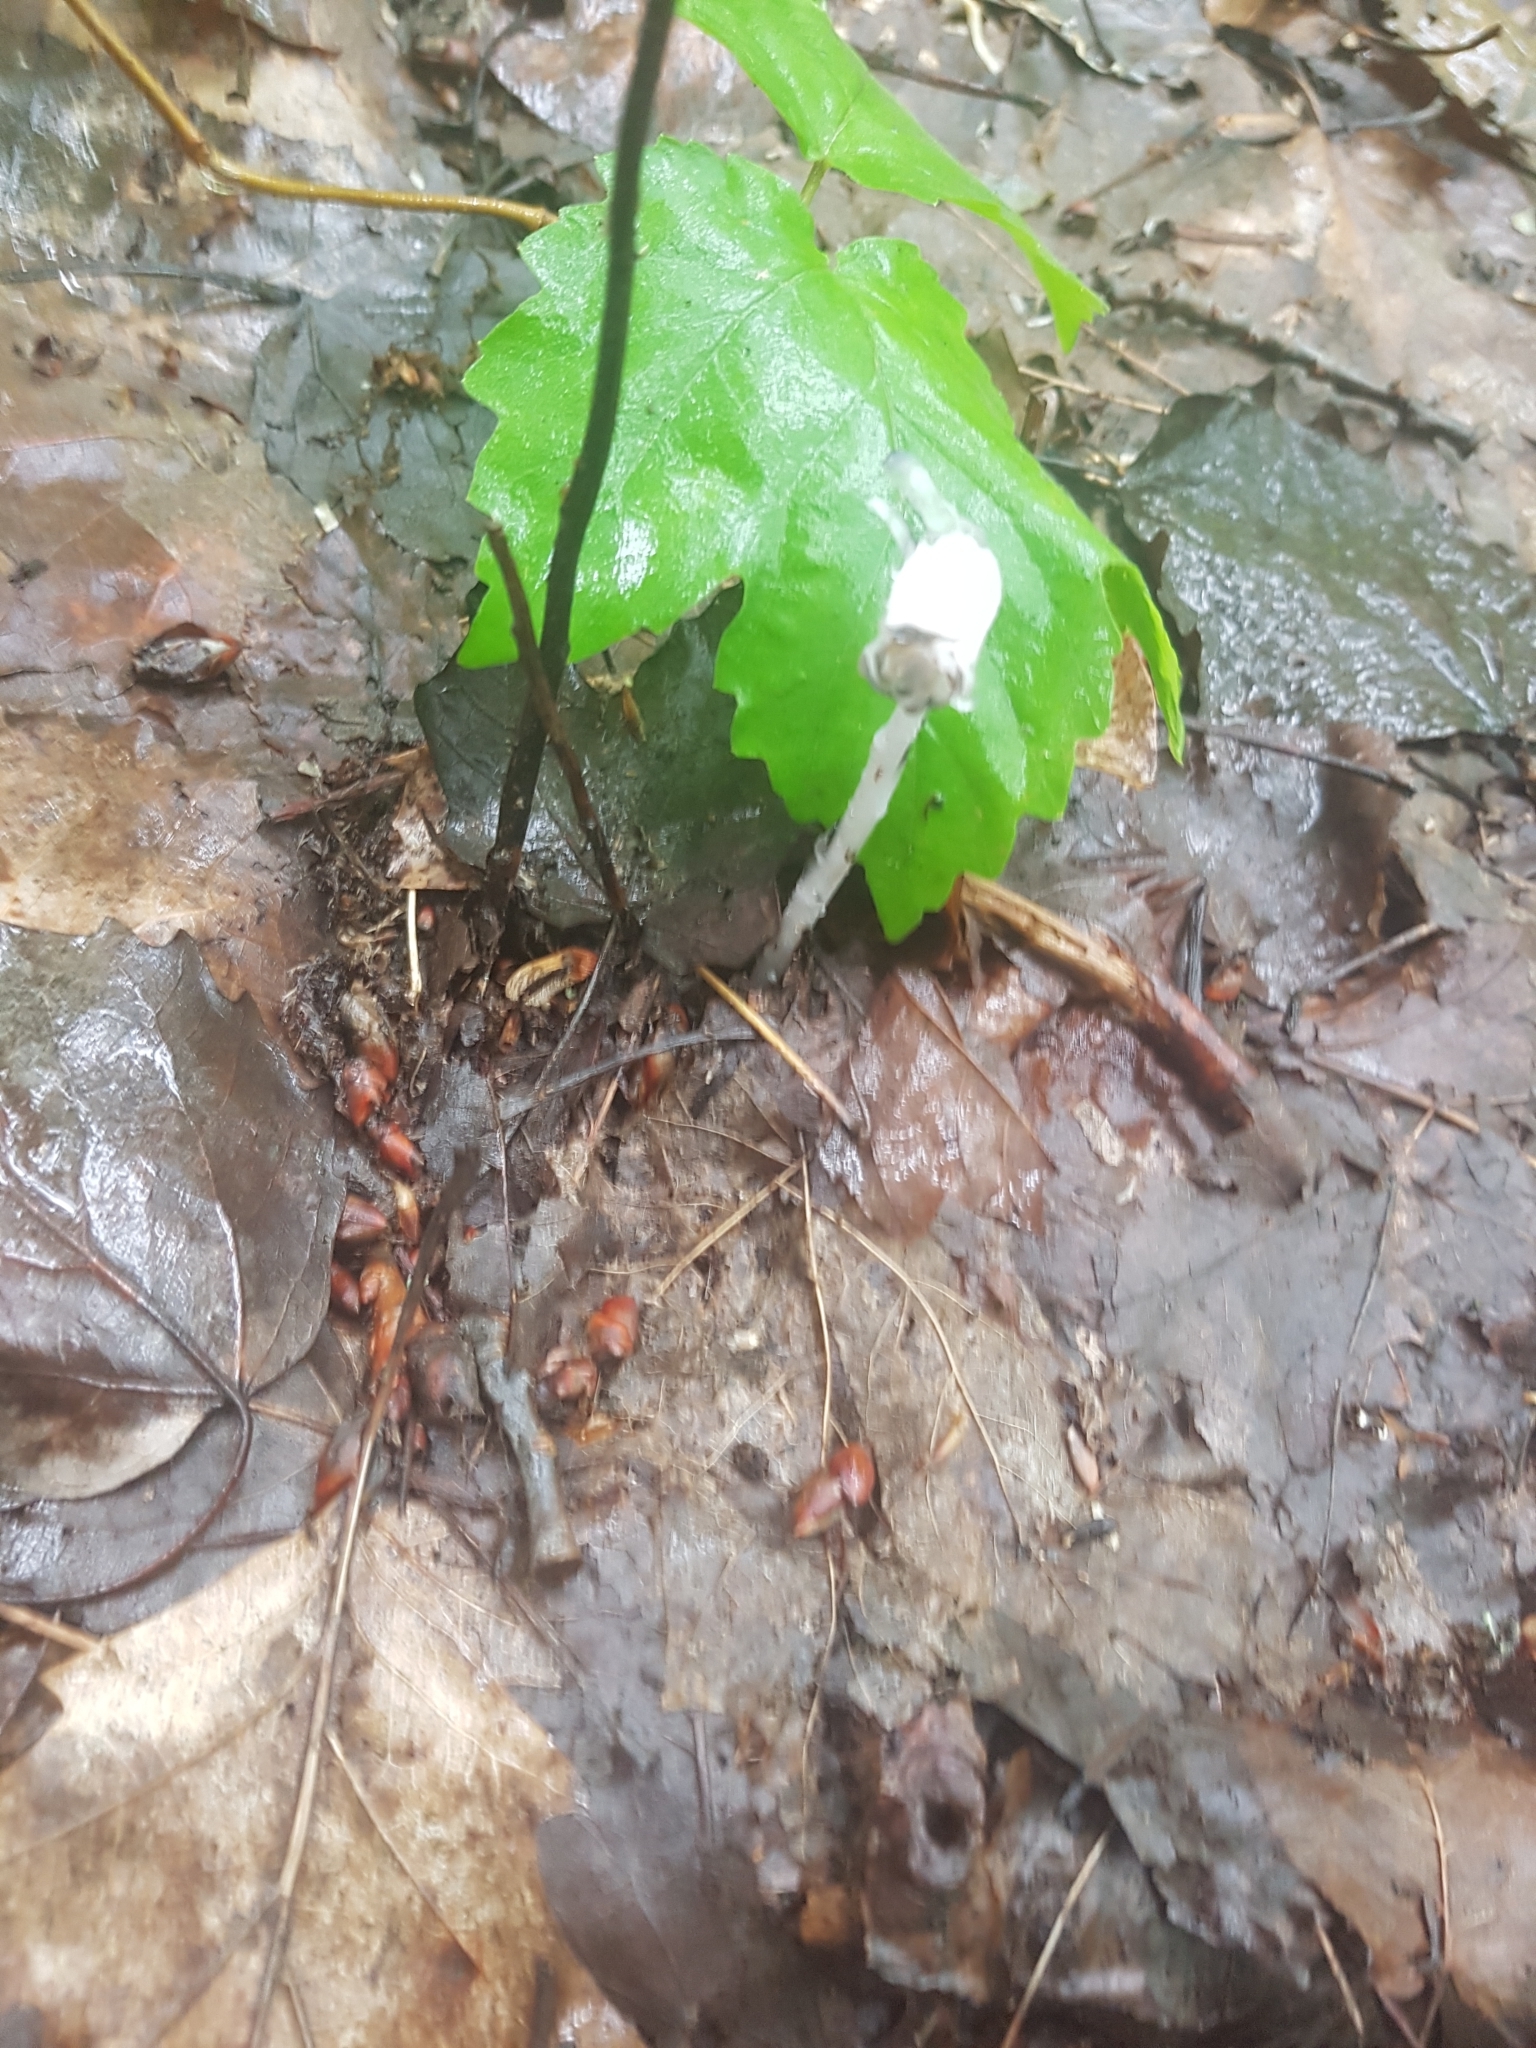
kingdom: Plantae
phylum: Tracheophyta
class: Magnoliopsida
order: Ericales
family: Ericaceae
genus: Monotropa
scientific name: Monotropa uniflora
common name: Convulsion root
